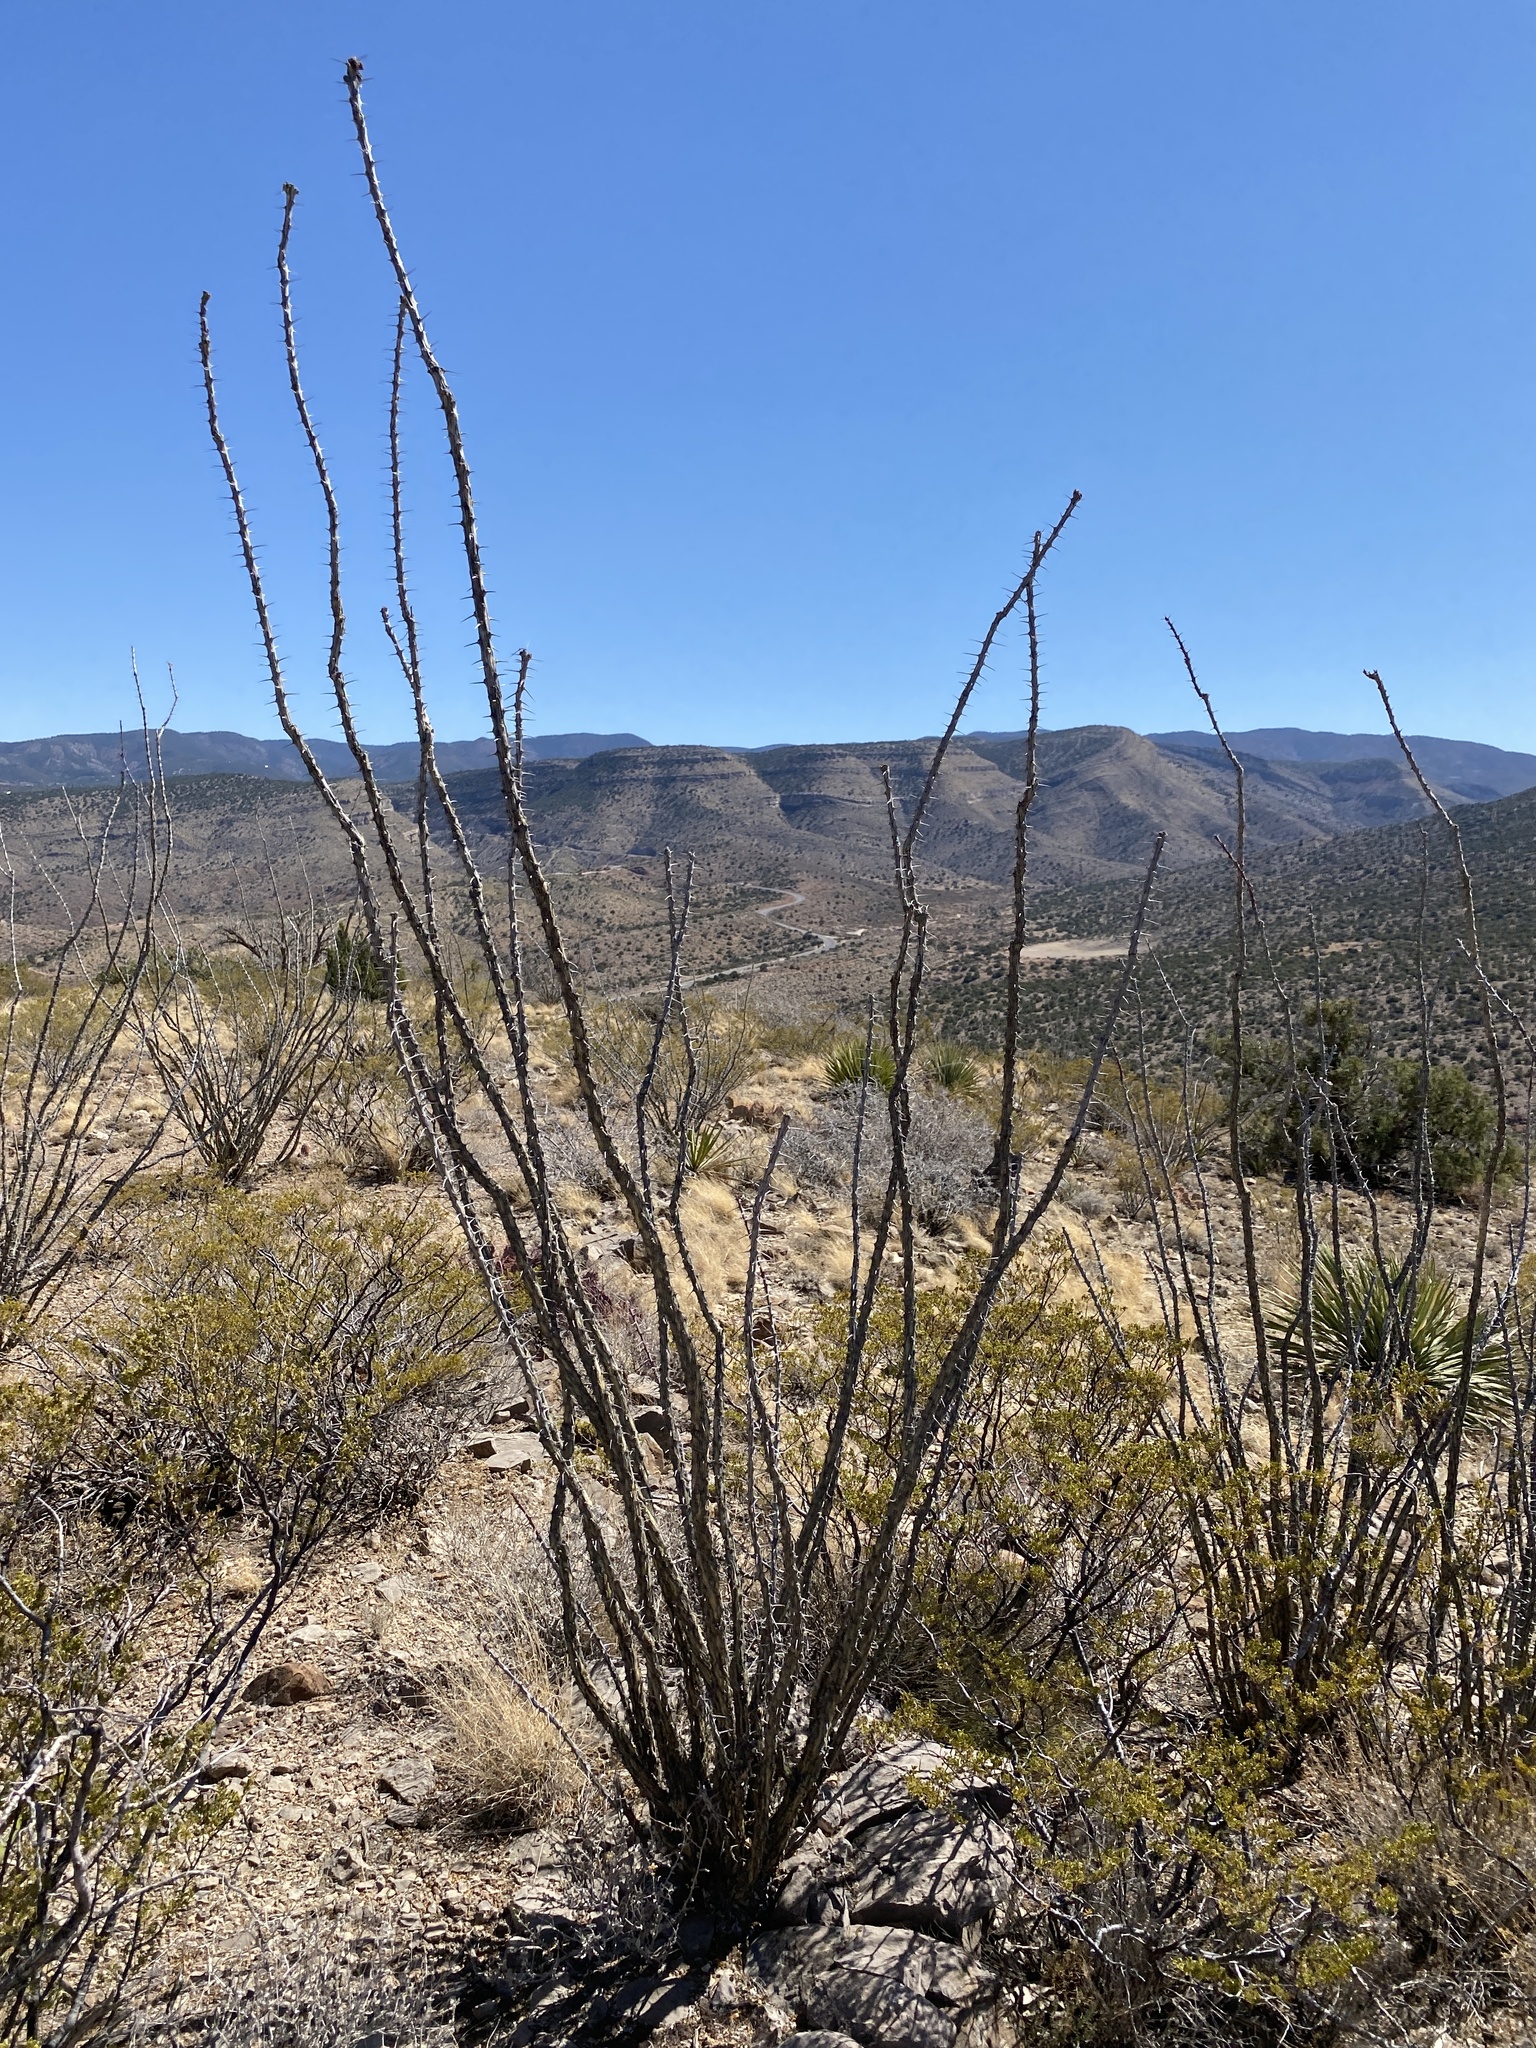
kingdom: Plantae
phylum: Tracheophyta
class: Magnoliopsida
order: Ericales
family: Fouquieriaceae
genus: Fouquieria
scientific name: Fouquieria splendens
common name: Vine-cactus
